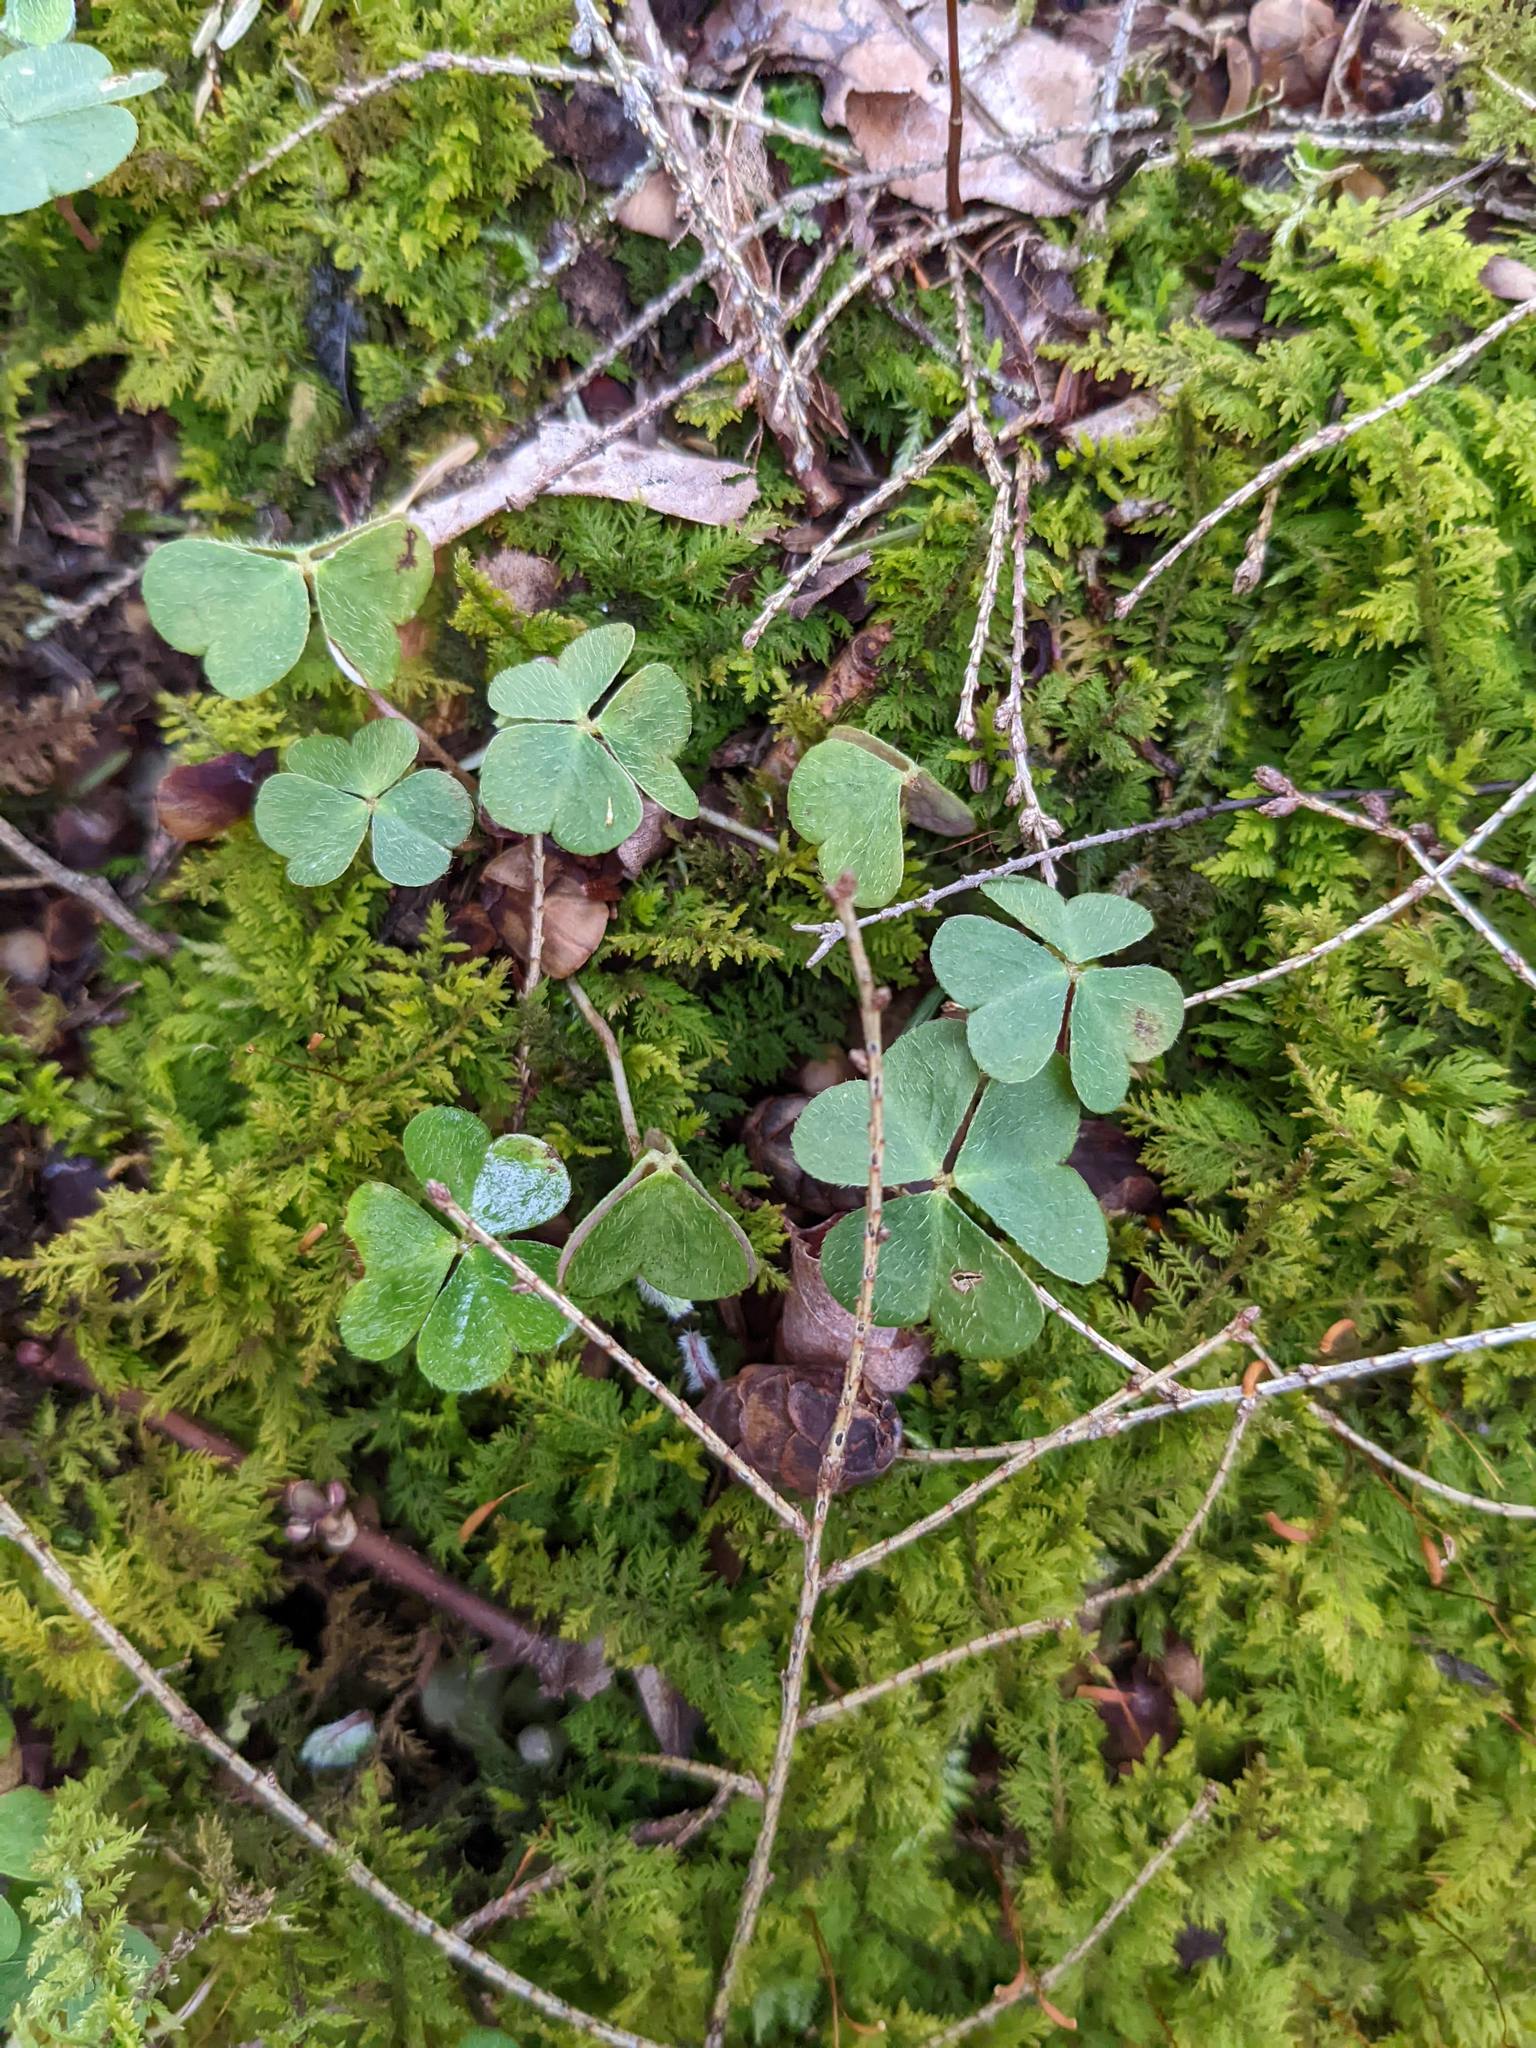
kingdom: Plantae
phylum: Tracheophyta
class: Magnoliopsida
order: Oxalidales
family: Oxalidaceae
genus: Oxalis
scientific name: Oxalis montana
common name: American wood-sorrel
